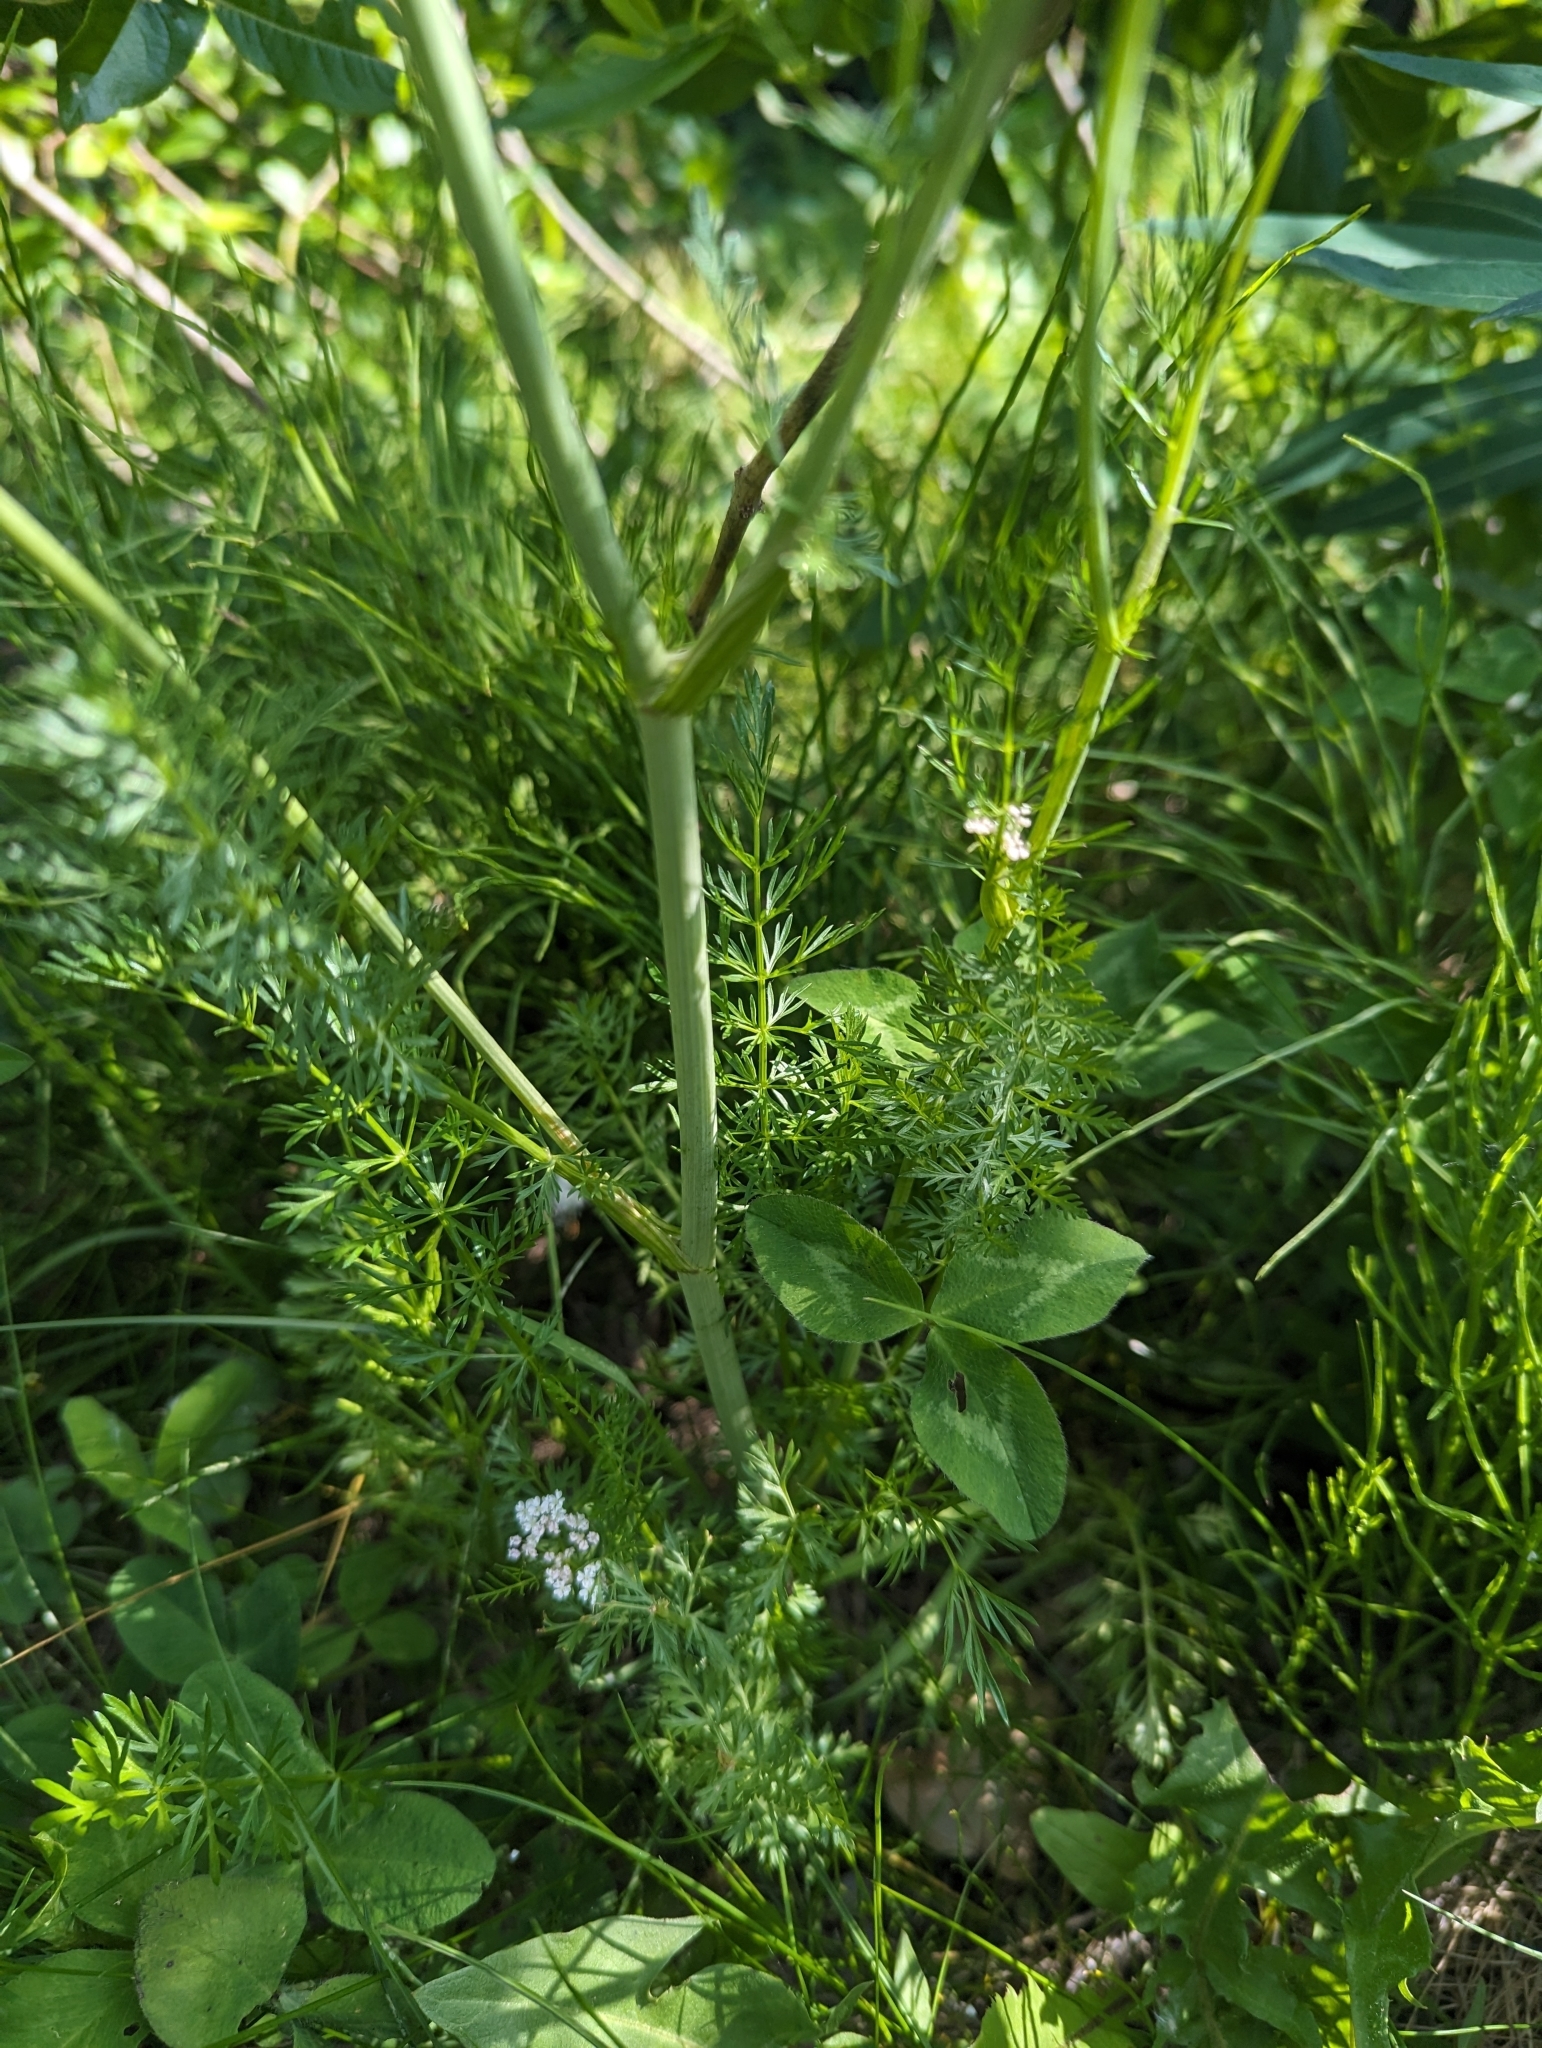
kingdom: Plantae
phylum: Tracheophyta
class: Magnoliopsida
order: Apiales
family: Apiaceae
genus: Carum
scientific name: Carum carvi
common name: Caraway
